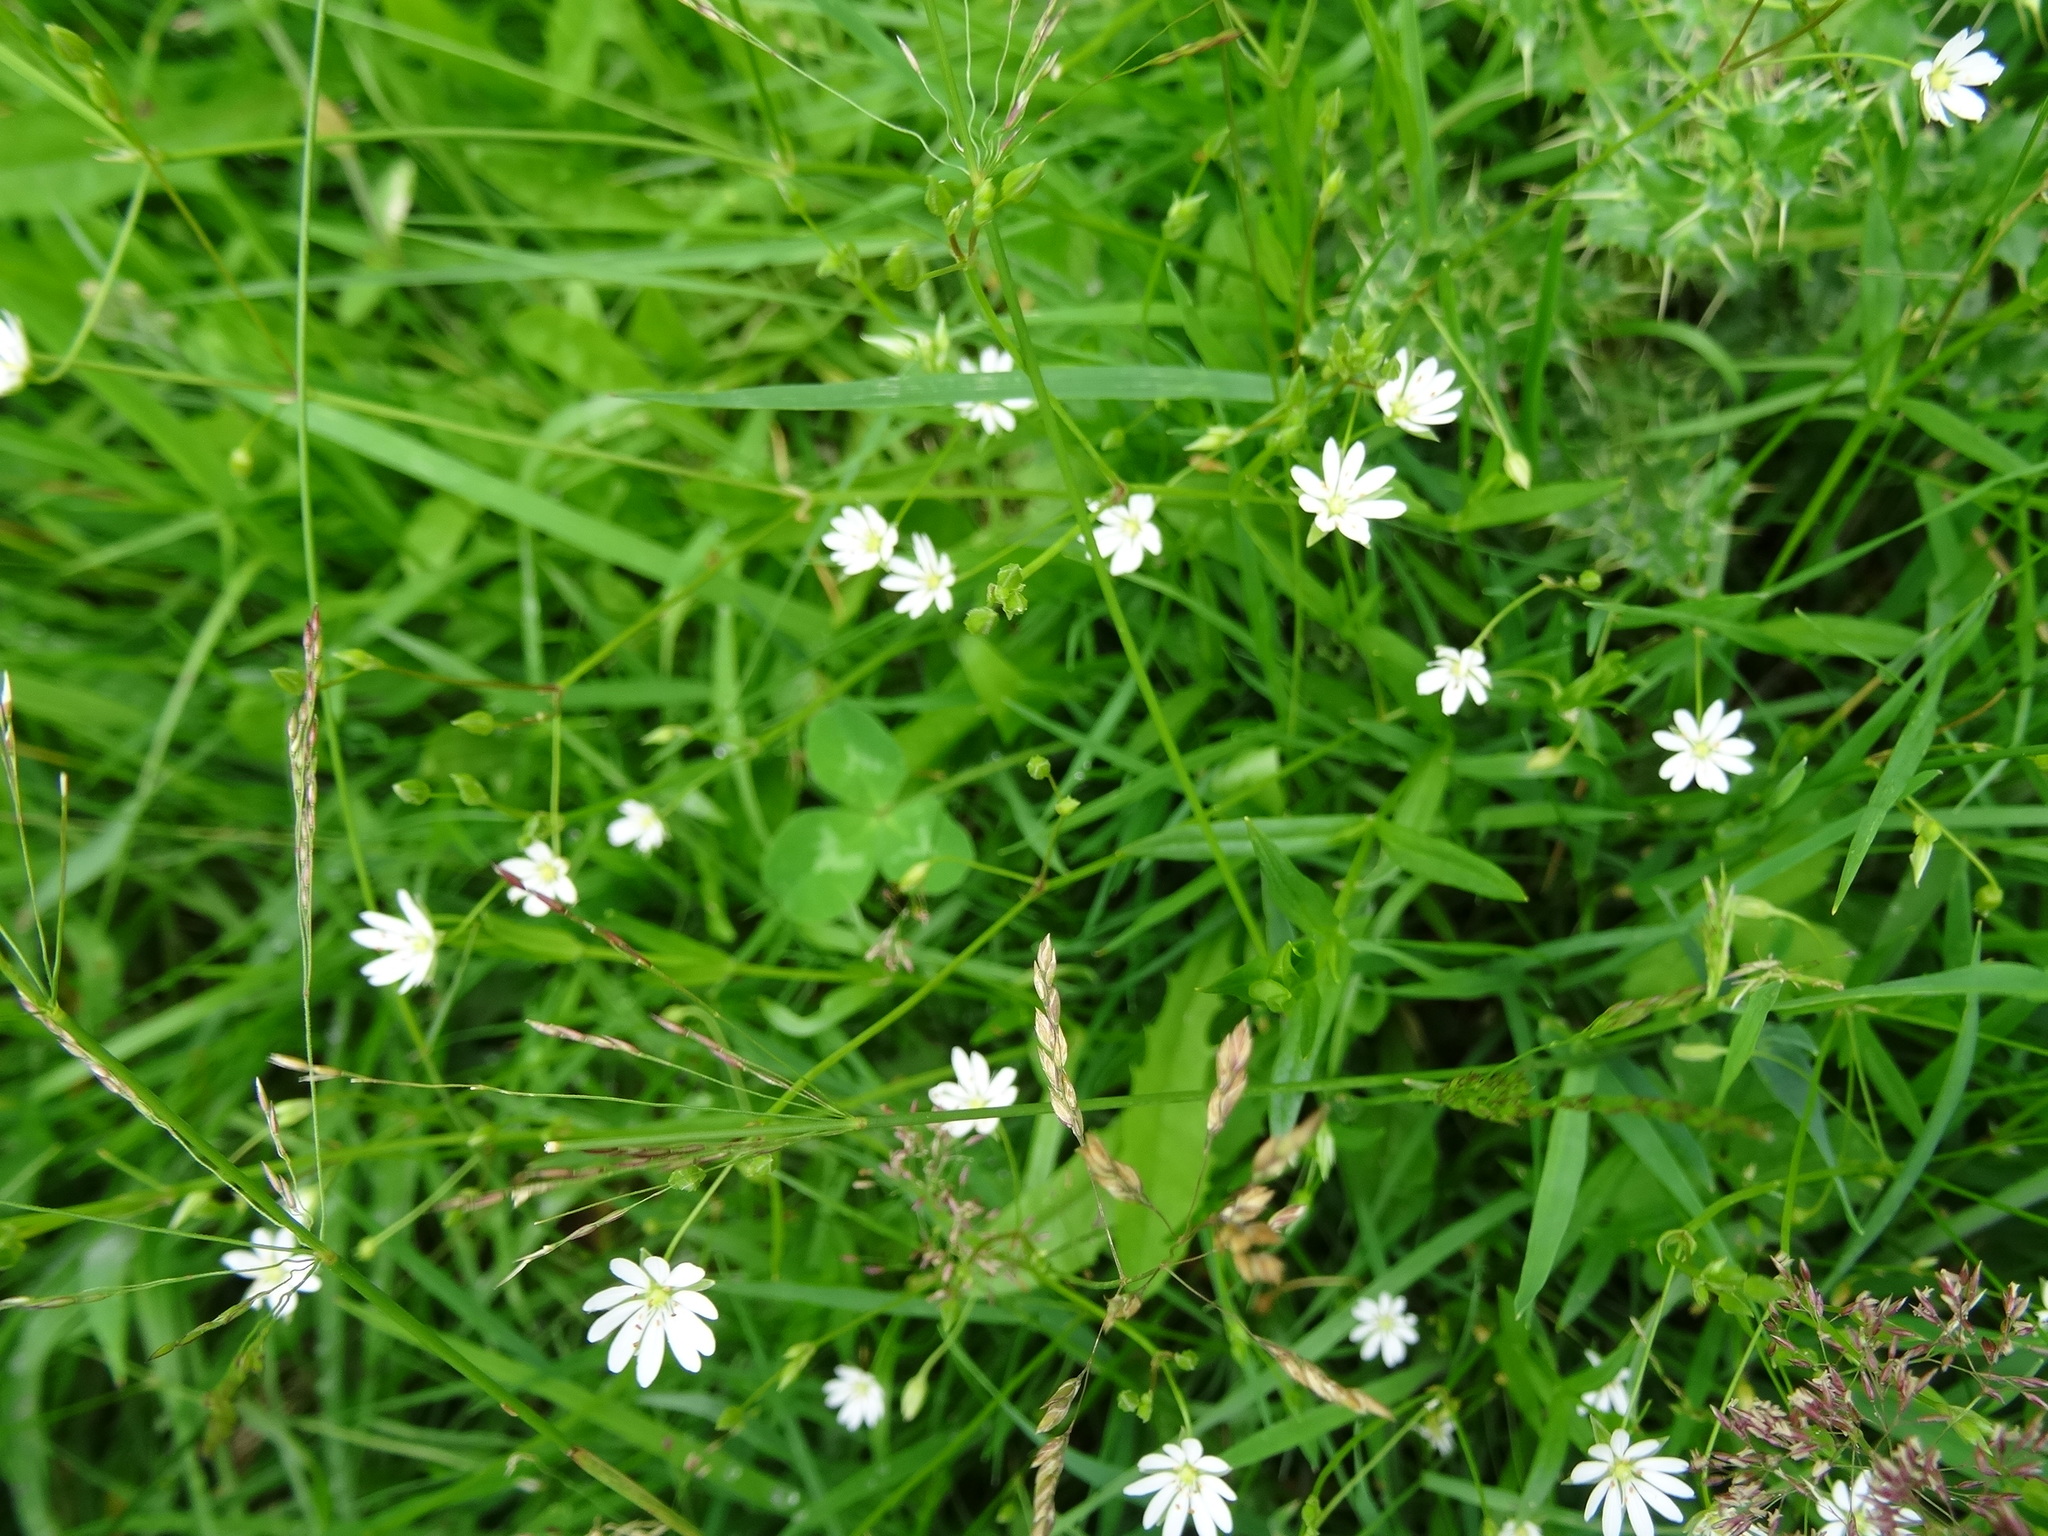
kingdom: Plantae
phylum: Tracheophyta
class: Magnoliopsida
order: Caryophyllales
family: Caryophyllaceae
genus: Stellaria
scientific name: Stellaria graminea
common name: Grass-like starwort
